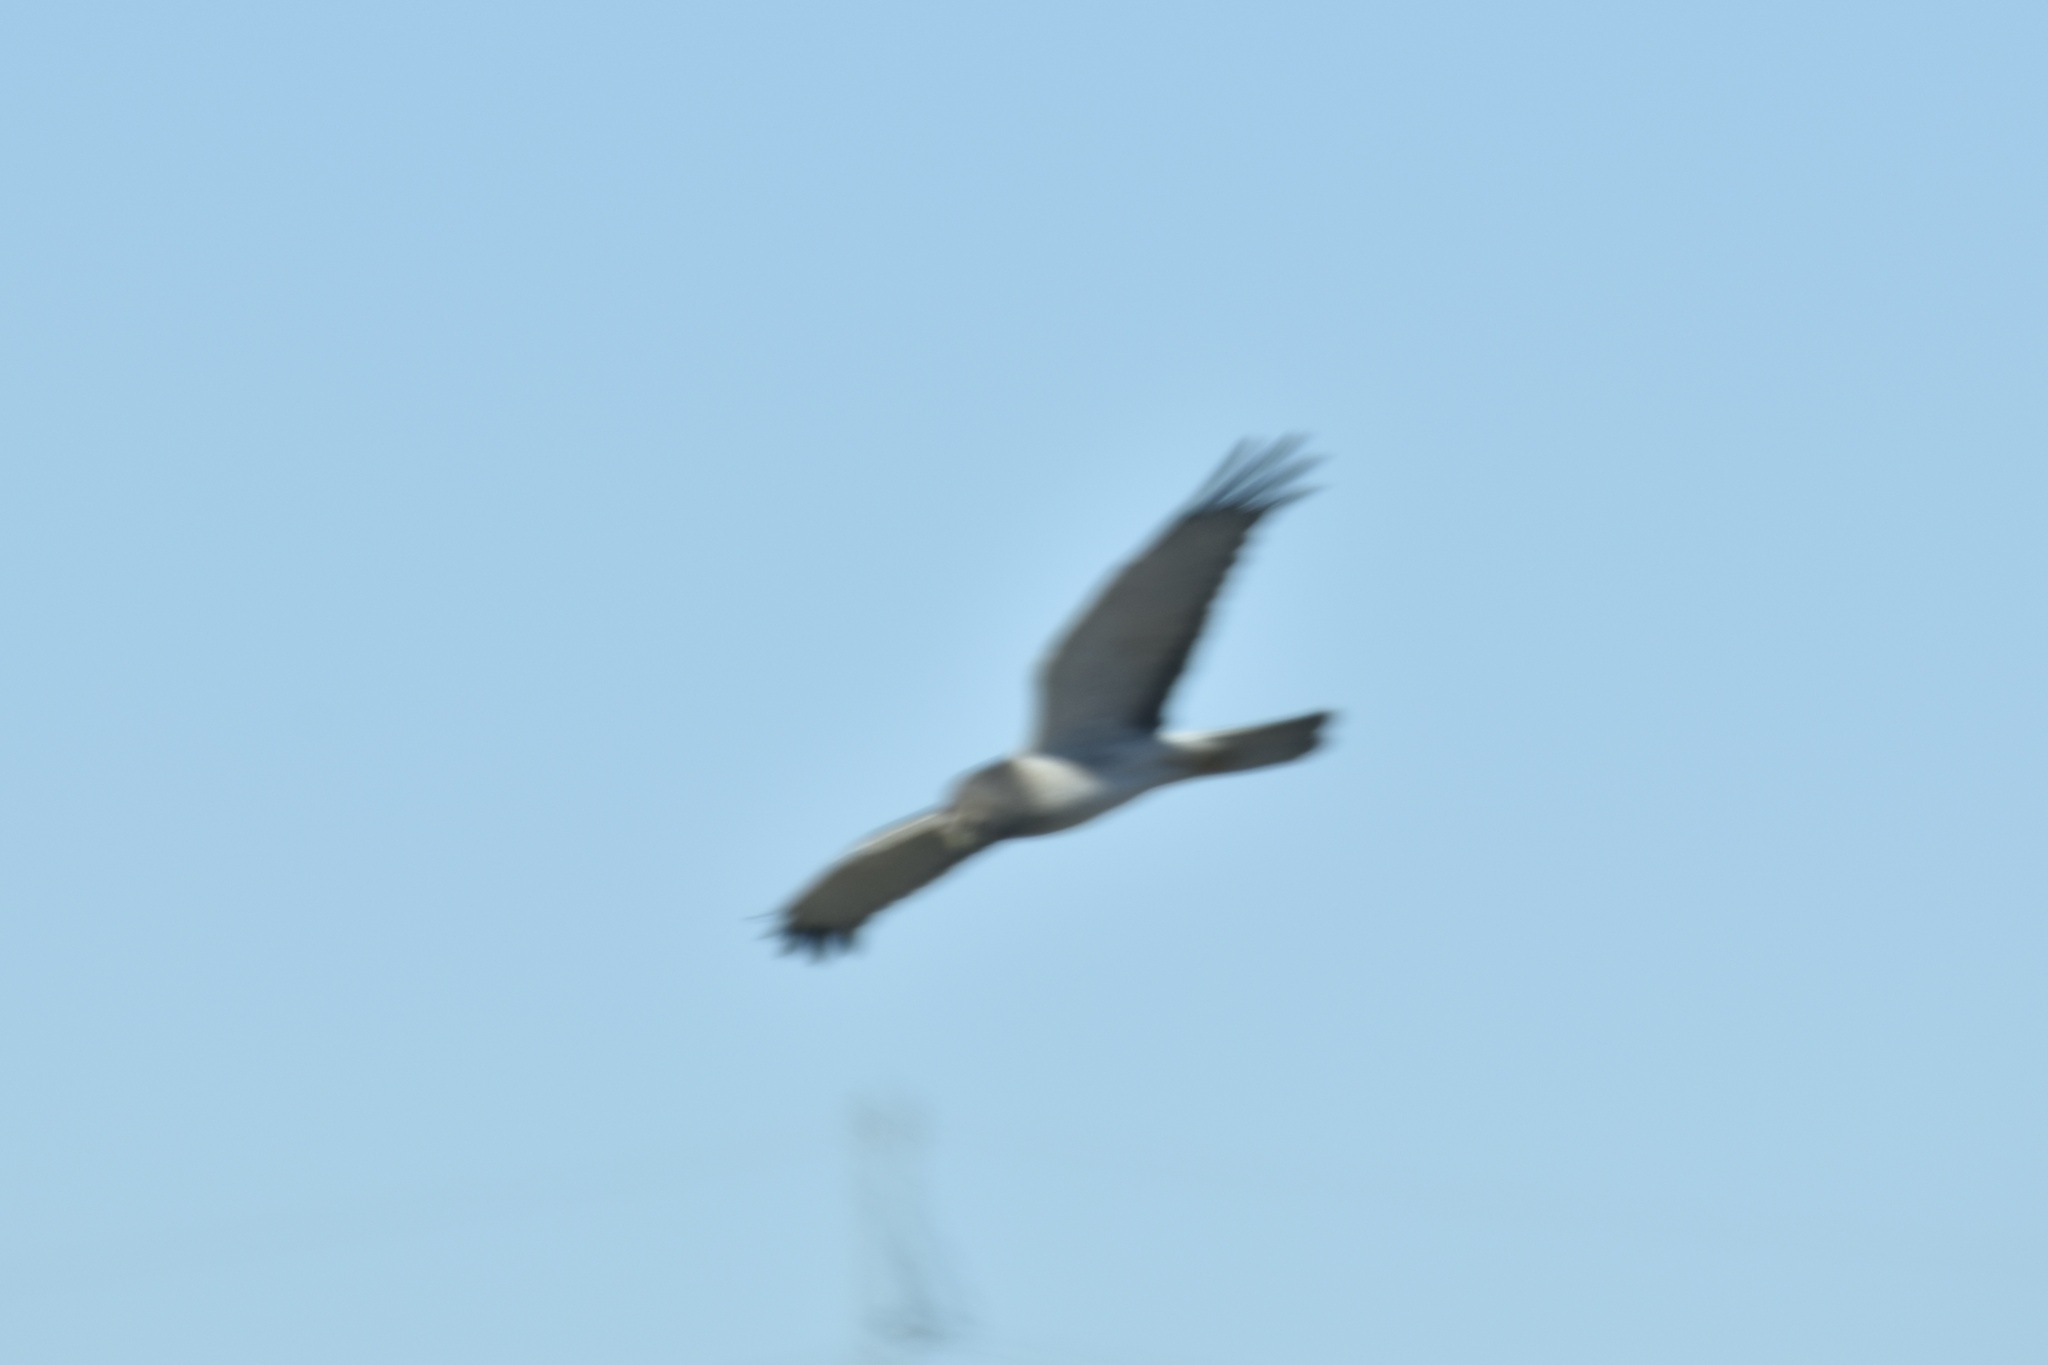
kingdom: Animalia
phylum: Chordata
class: Aves
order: Accipitriformes
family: Accipitridae
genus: Circus
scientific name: Circus cyaneus
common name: Hen harrier
